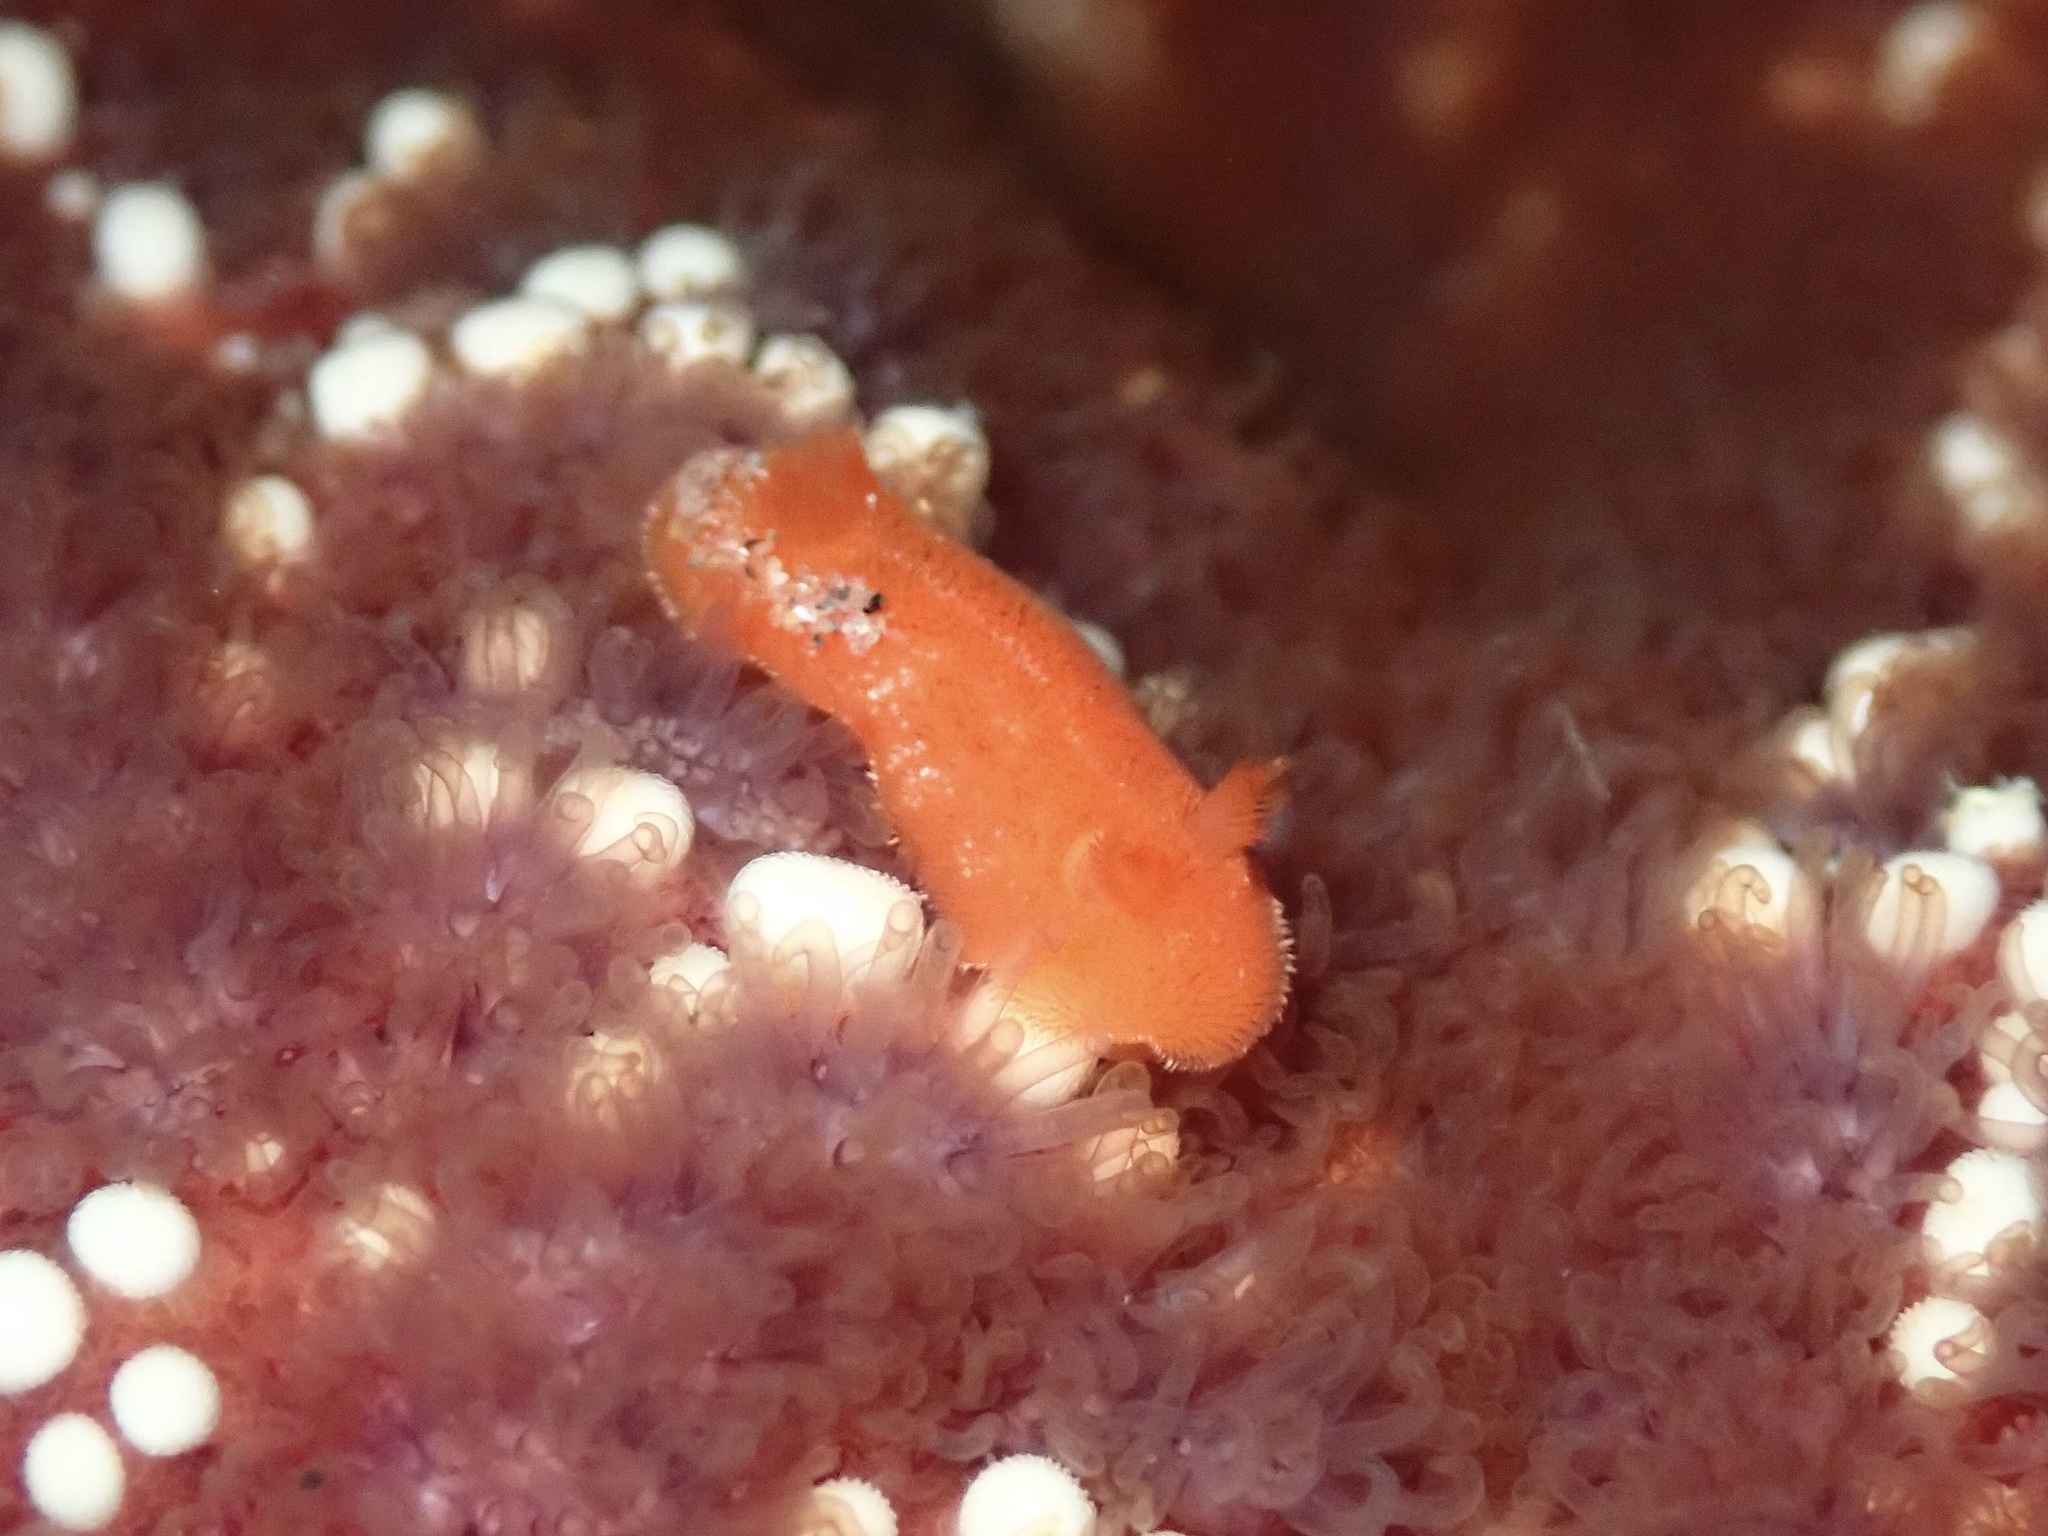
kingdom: Animalia
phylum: Mollusca
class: Gastropoda
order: Nudibranchia
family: Discodorididae
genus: Rostanga
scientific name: Rostanga pulchra
